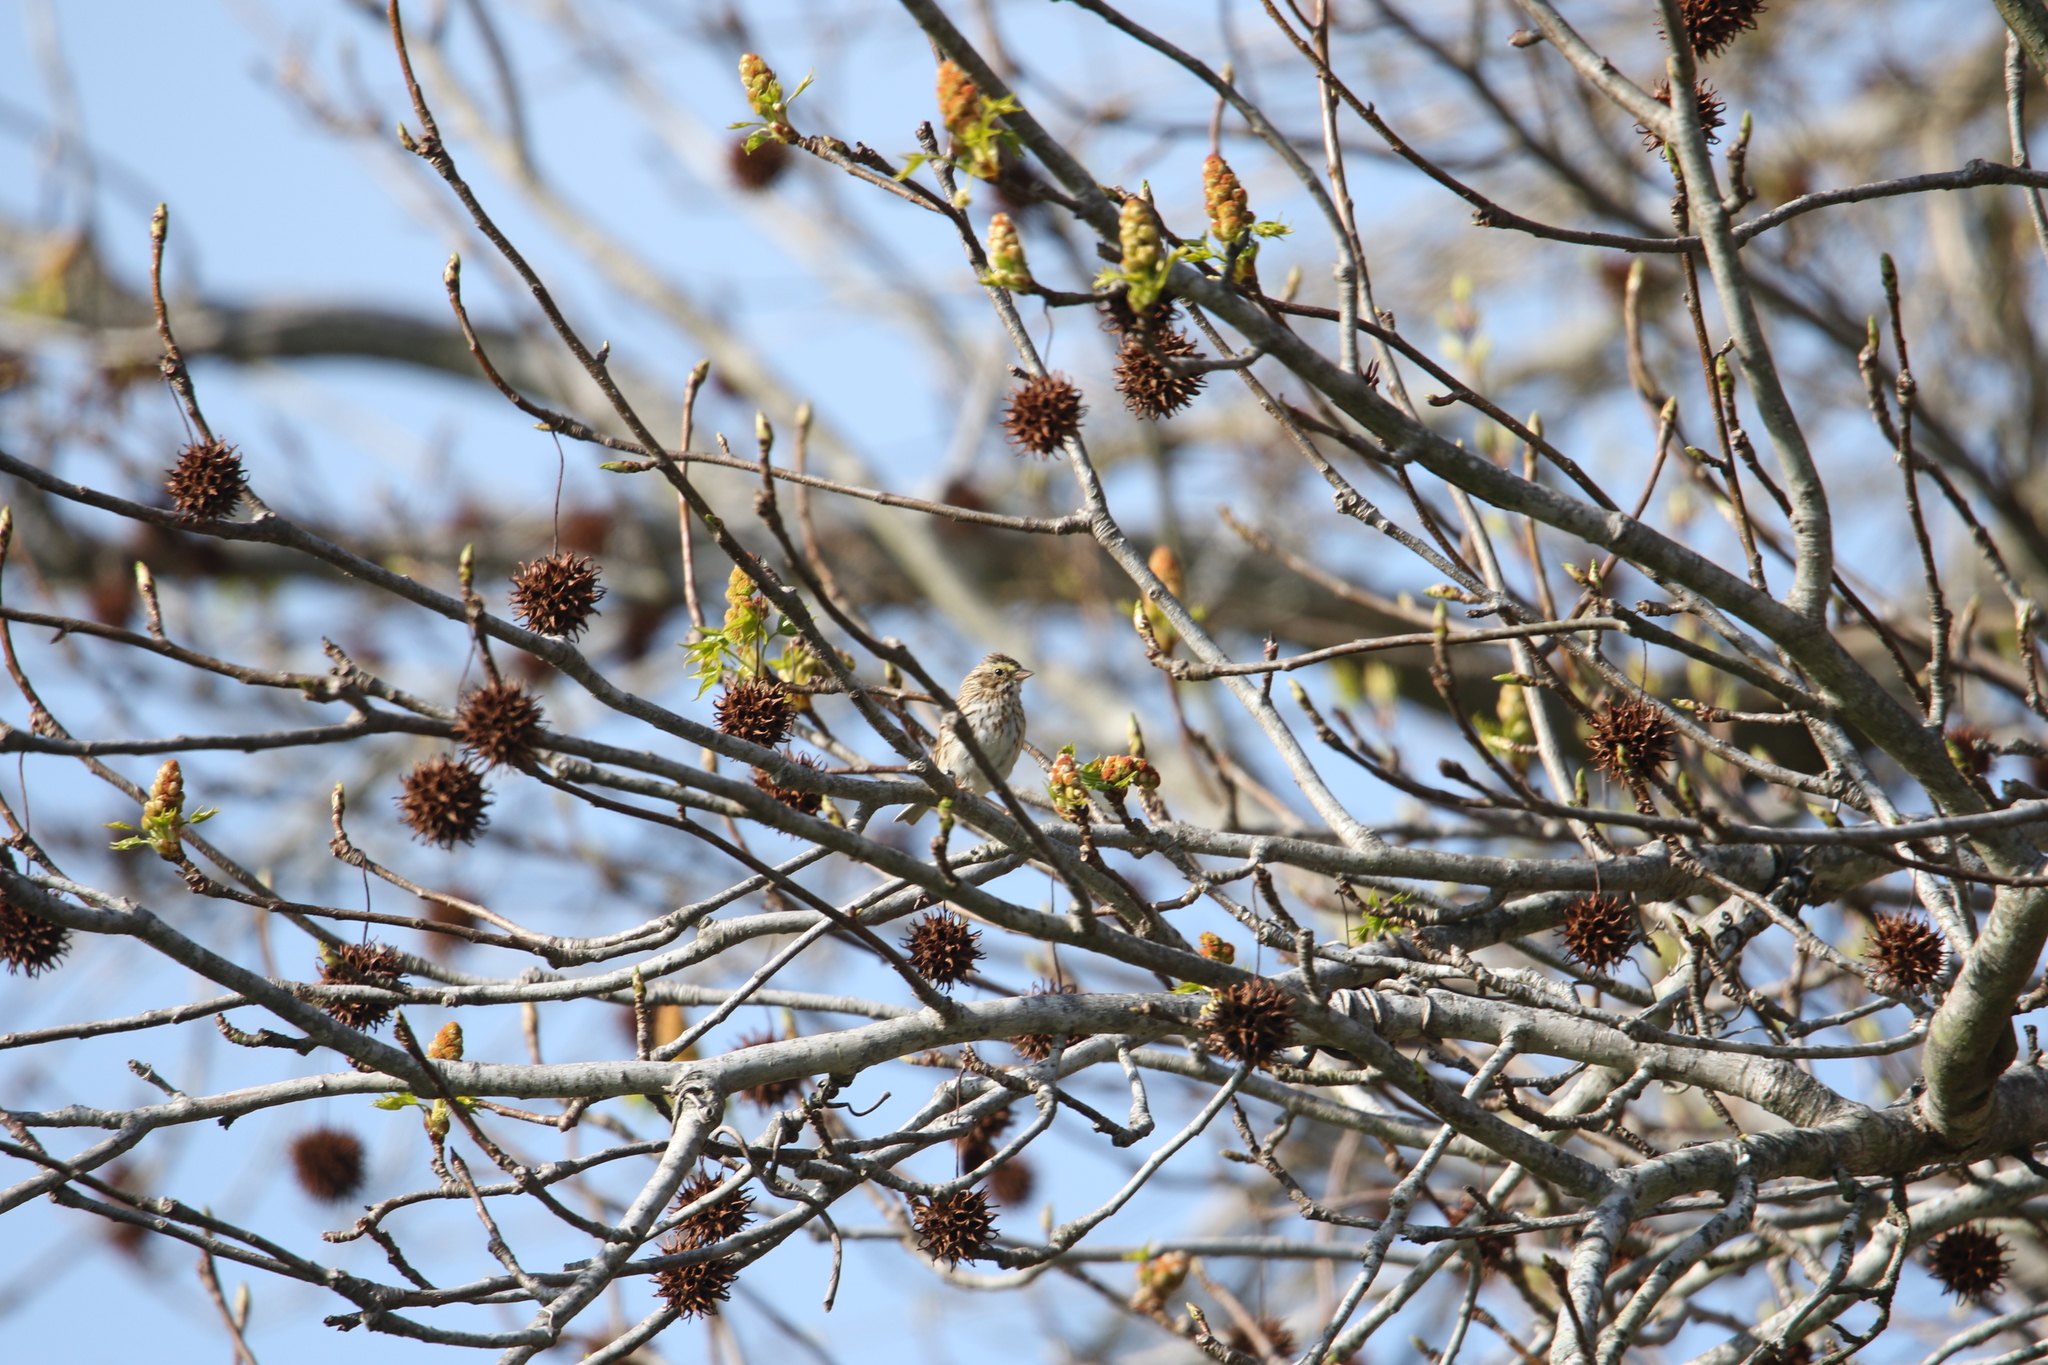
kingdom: Animalia
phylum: Chordata
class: Aves
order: Passeriformes
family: Passerellidae
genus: Passerculus
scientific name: Passerculus sandwichensis
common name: Savannah sparrow
